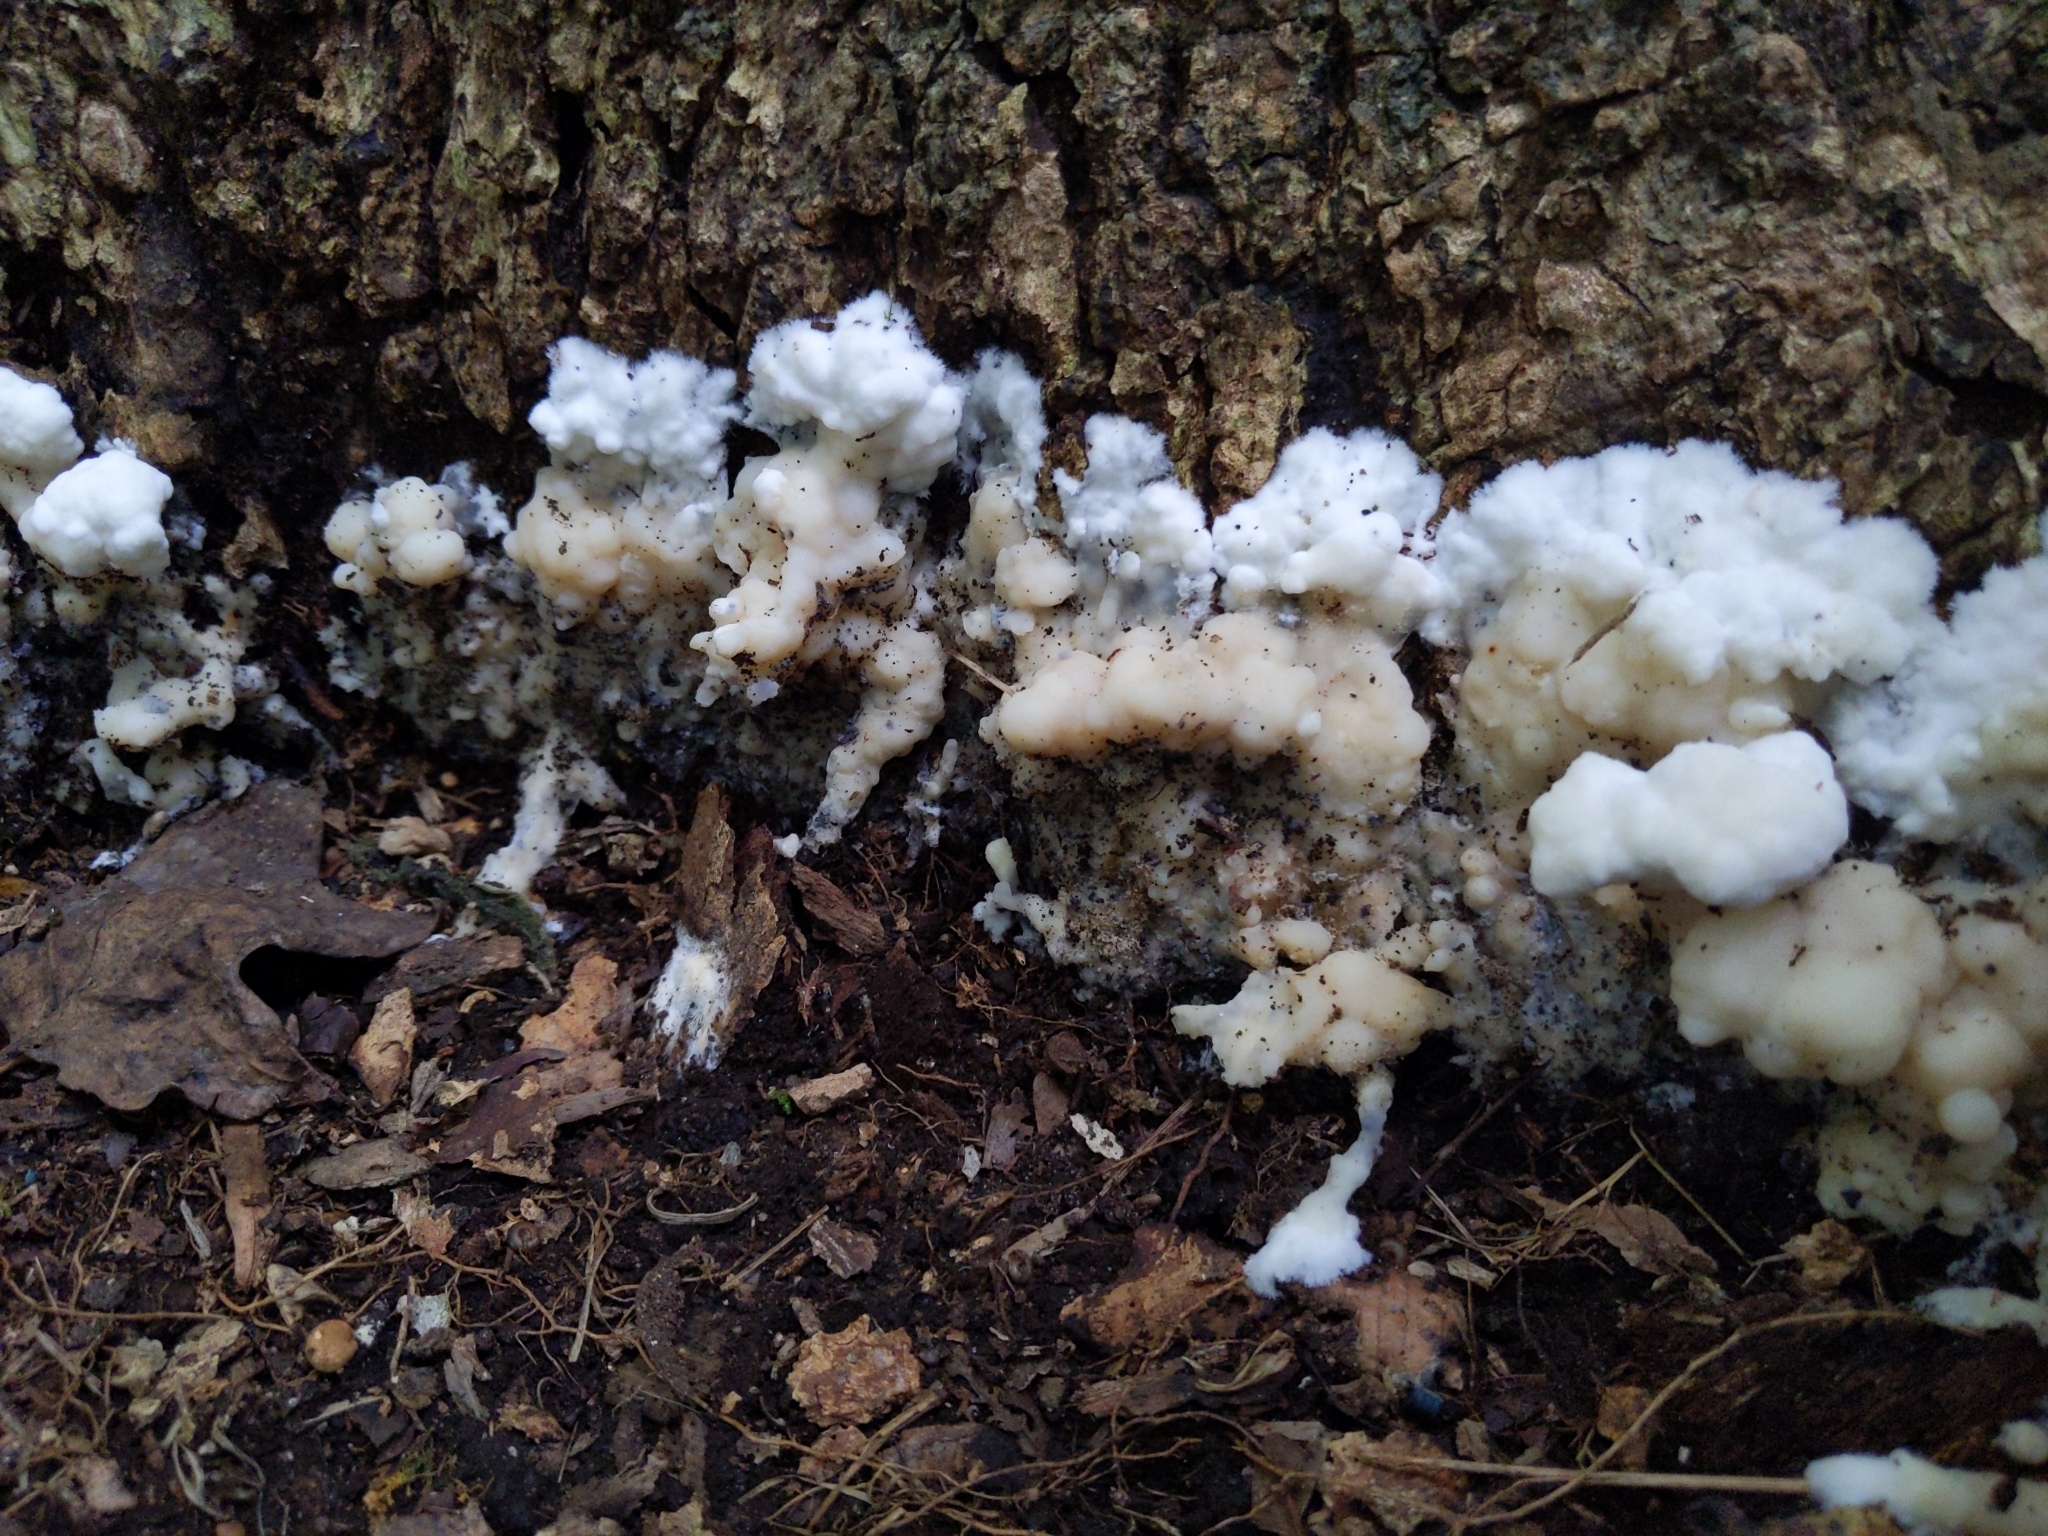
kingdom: Fungi
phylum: Basidiomycota
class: Agaricomycetes
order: Sebacinales
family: Sebacinaceae
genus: Sebacina
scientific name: Sebacina incrustans
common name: Enveloping crust
